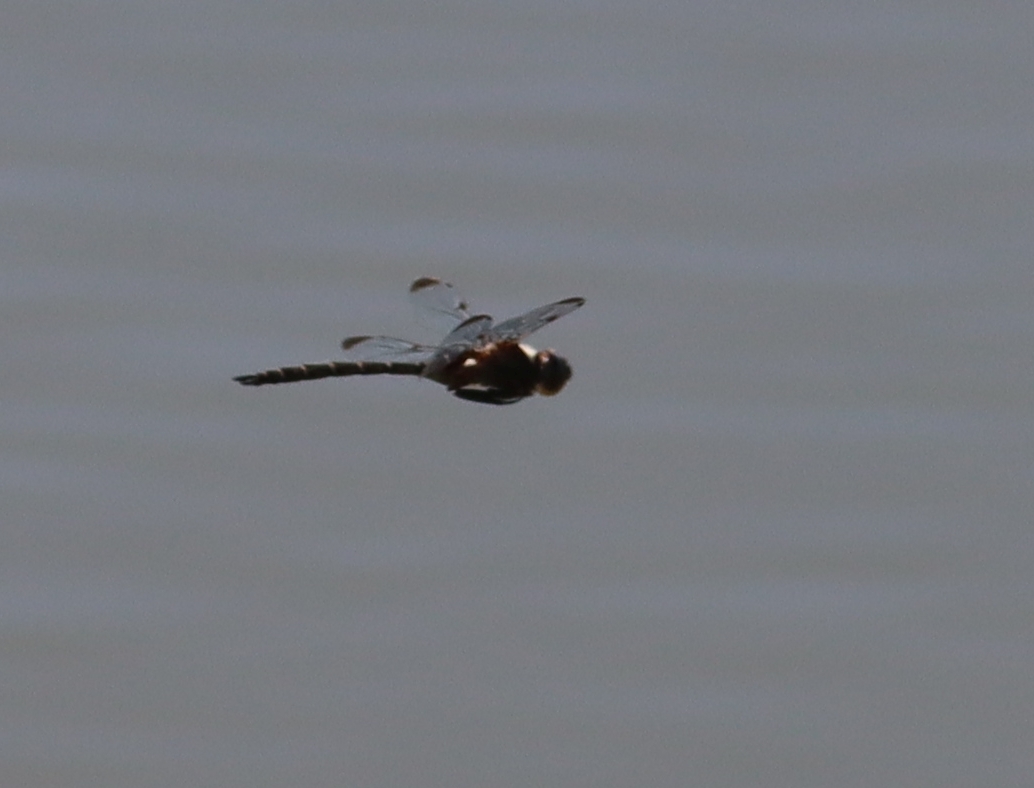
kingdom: Animalia
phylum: Arthropoda
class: Insecta
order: Odonata
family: Corduliidae
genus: Epitheca
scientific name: Epitheca princeps
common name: Prince baskettail
